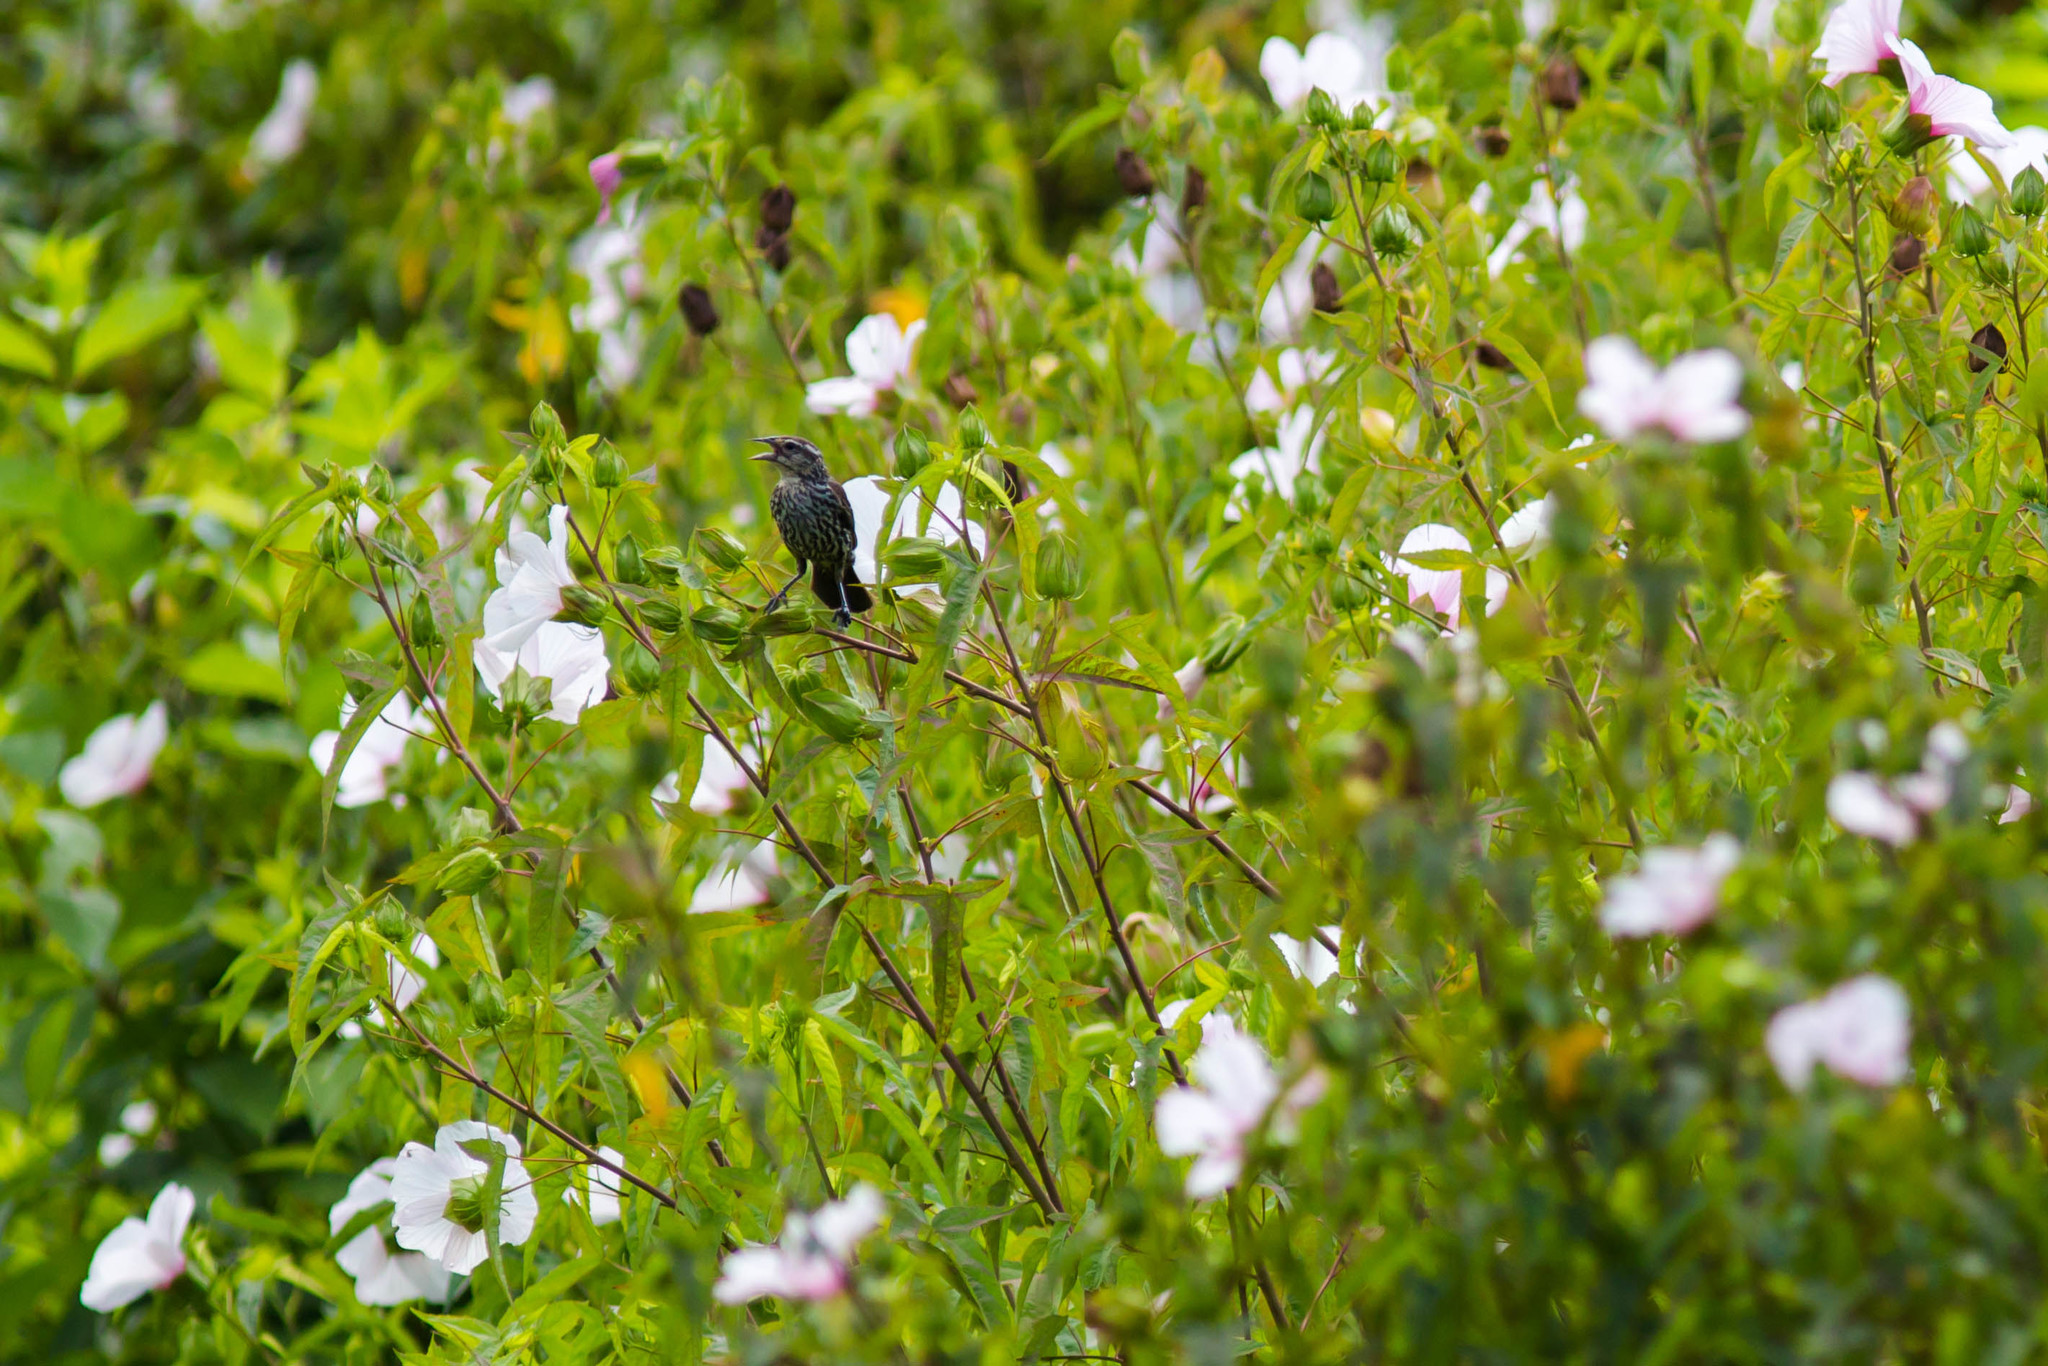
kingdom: Animalia
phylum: Chordata
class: Aves
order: Passeriformes
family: Icteridae
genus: Agelaius
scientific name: Agelaius phoeniceus
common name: Red-winged blackbird
